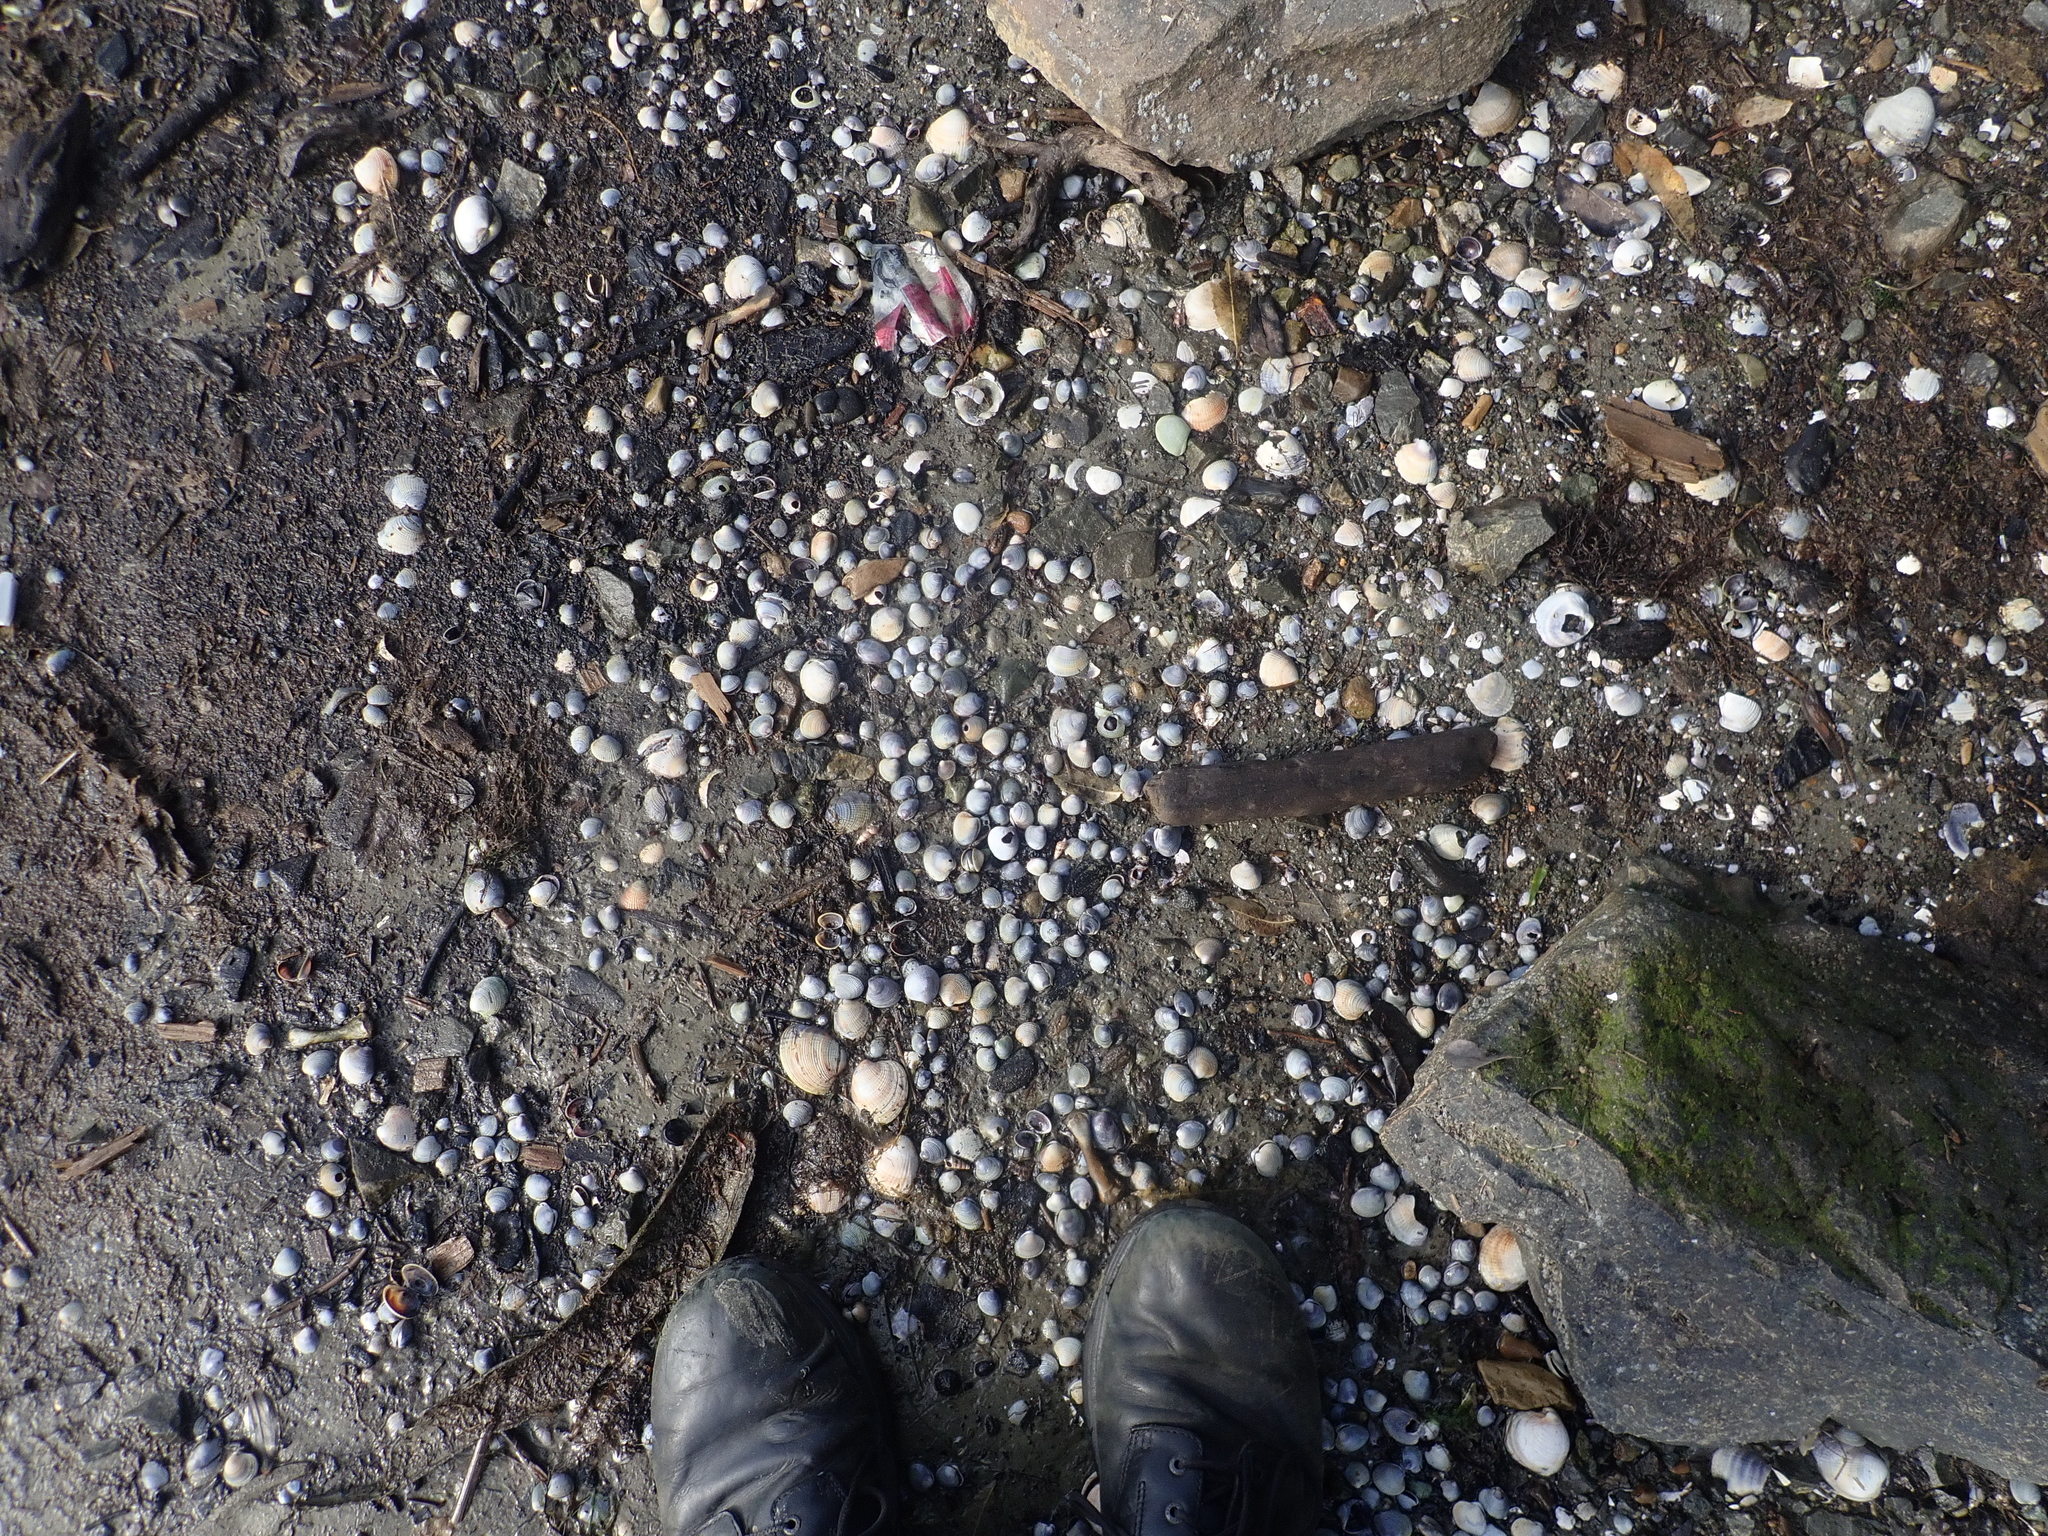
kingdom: Animalia
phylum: Mollusca
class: Bivalvia
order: Venerida
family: Veneridae
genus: Austrovenus
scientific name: Austrovenus stutchburyi
